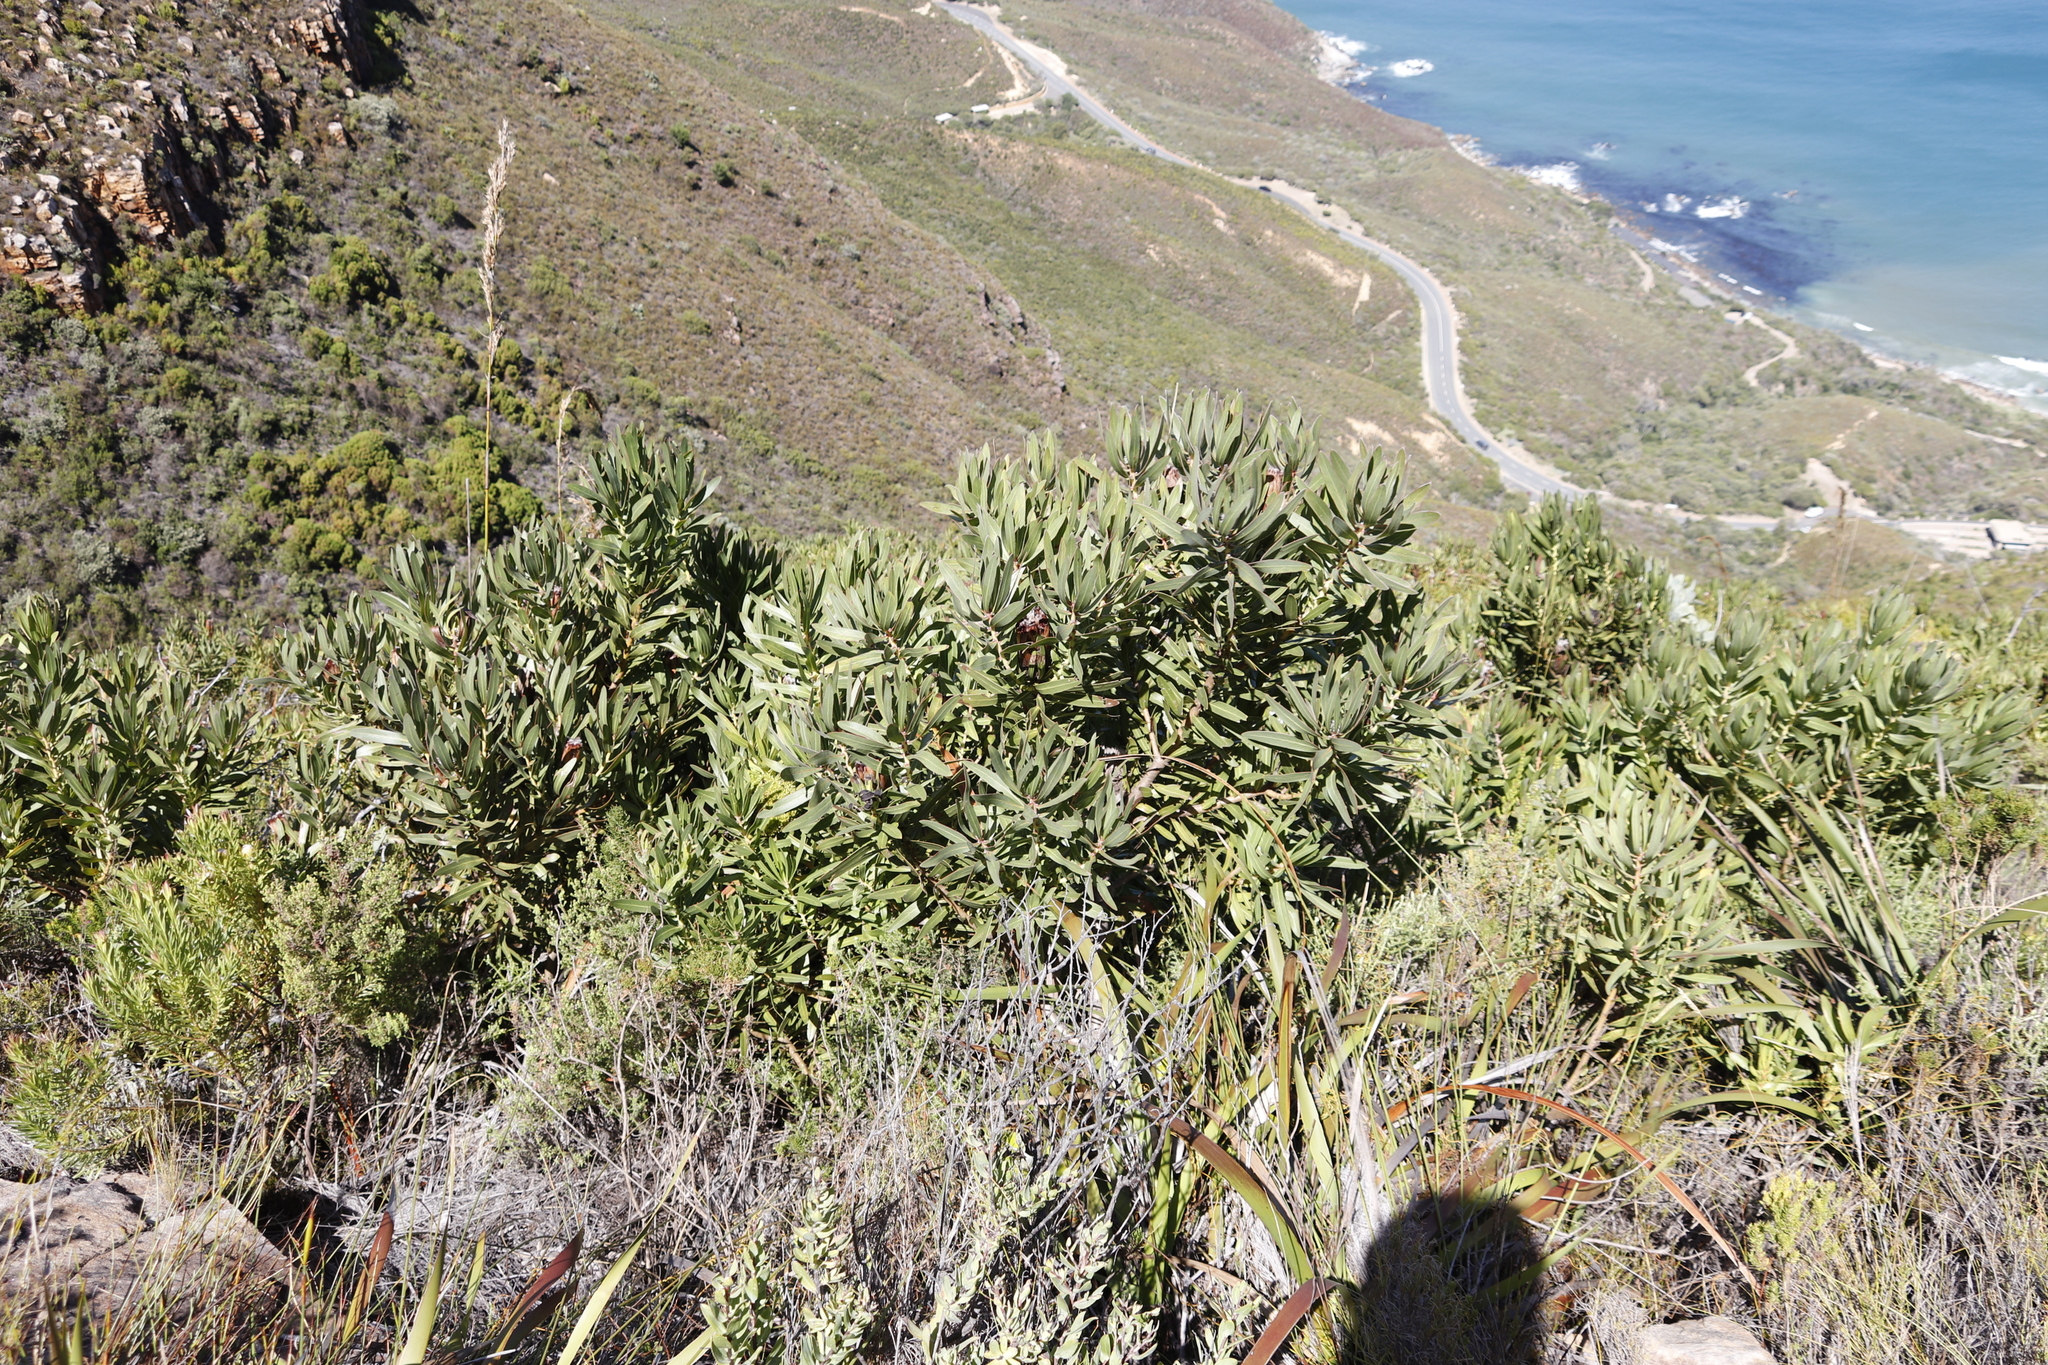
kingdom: Plantae
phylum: Tracheophyta
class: Magnoliopsida
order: Proteales
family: Proteaceae
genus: Protea
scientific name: Protea lepidocarpodendron
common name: Black-bearded protea
